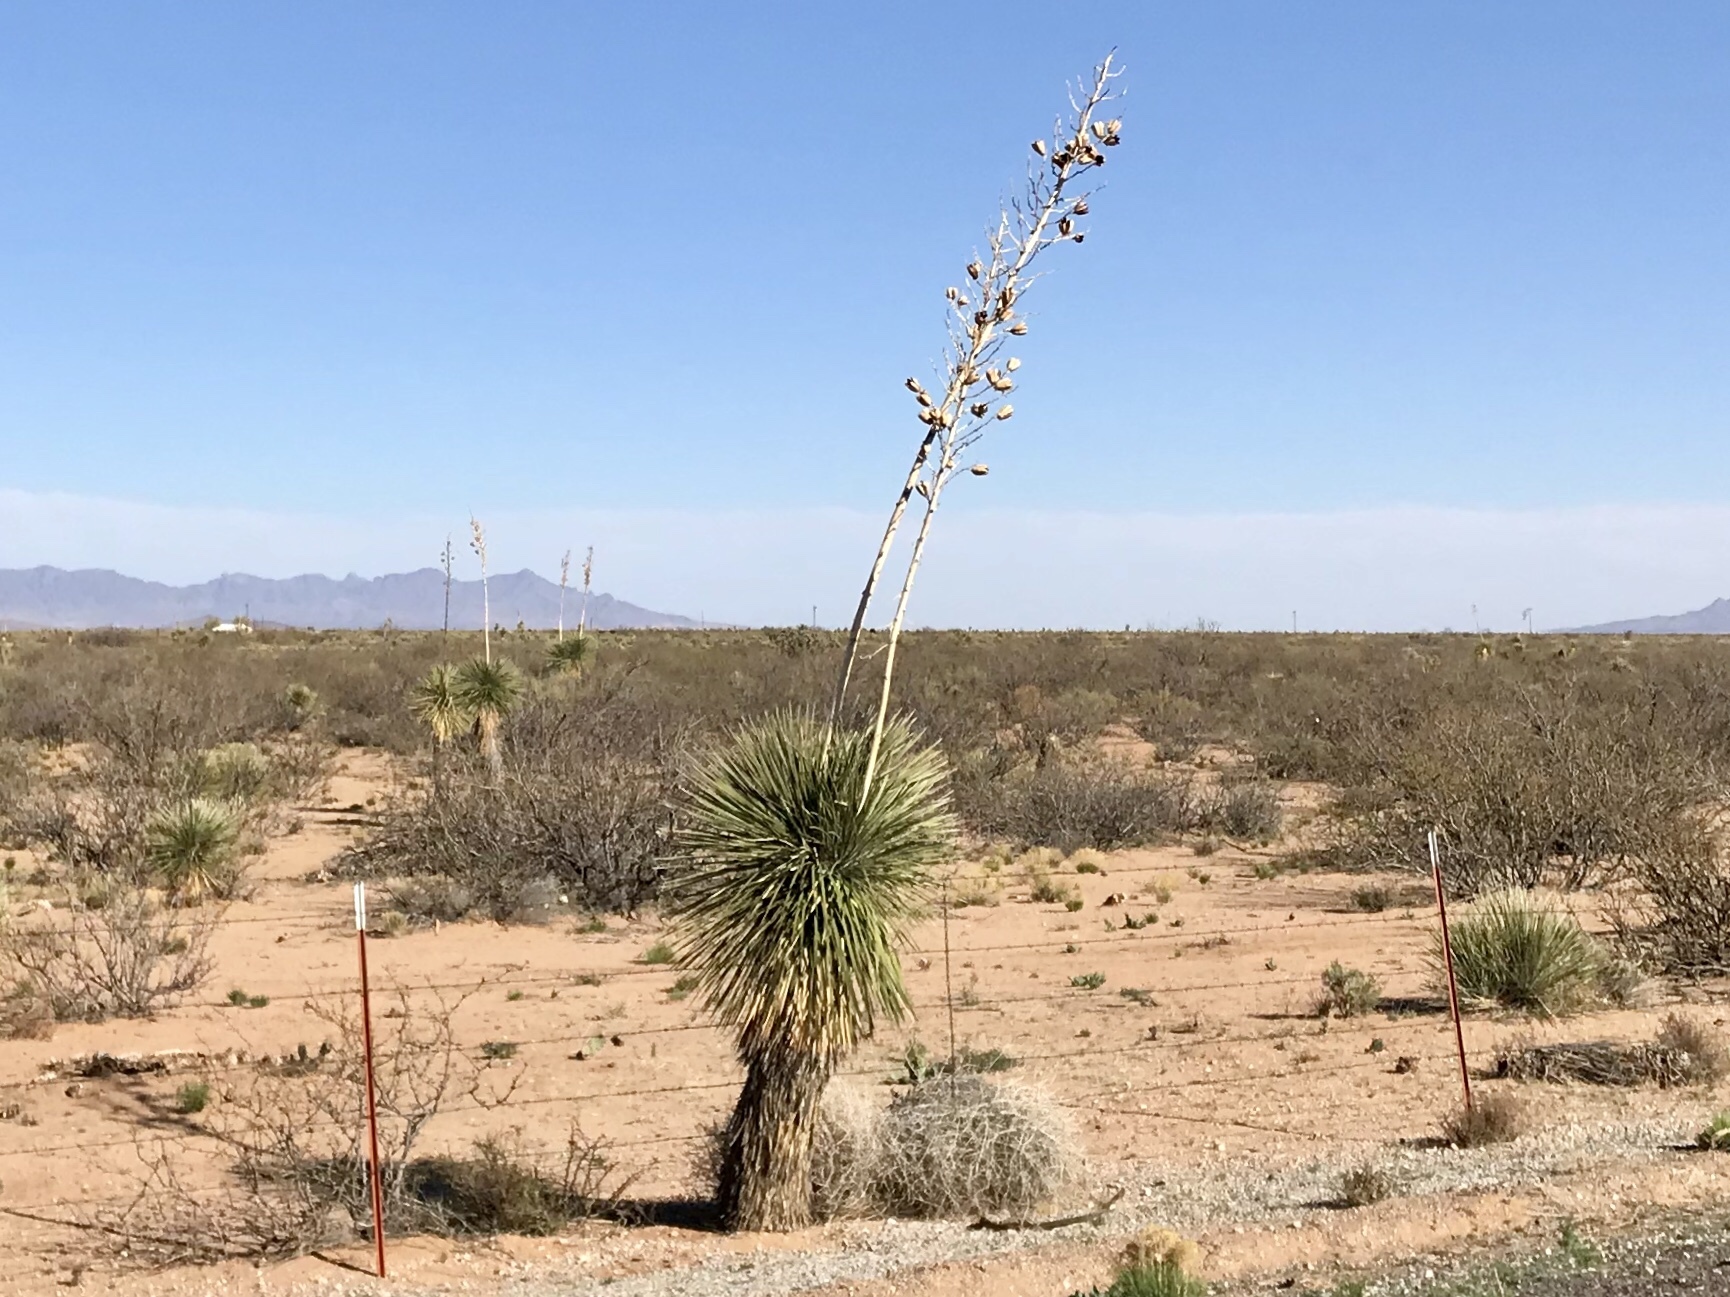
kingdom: Plantae
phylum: Tracheophyta
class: Liliopsida
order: Asparagales
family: Asparagaceae
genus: Yucca
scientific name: Yucca elata
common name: Palmella
